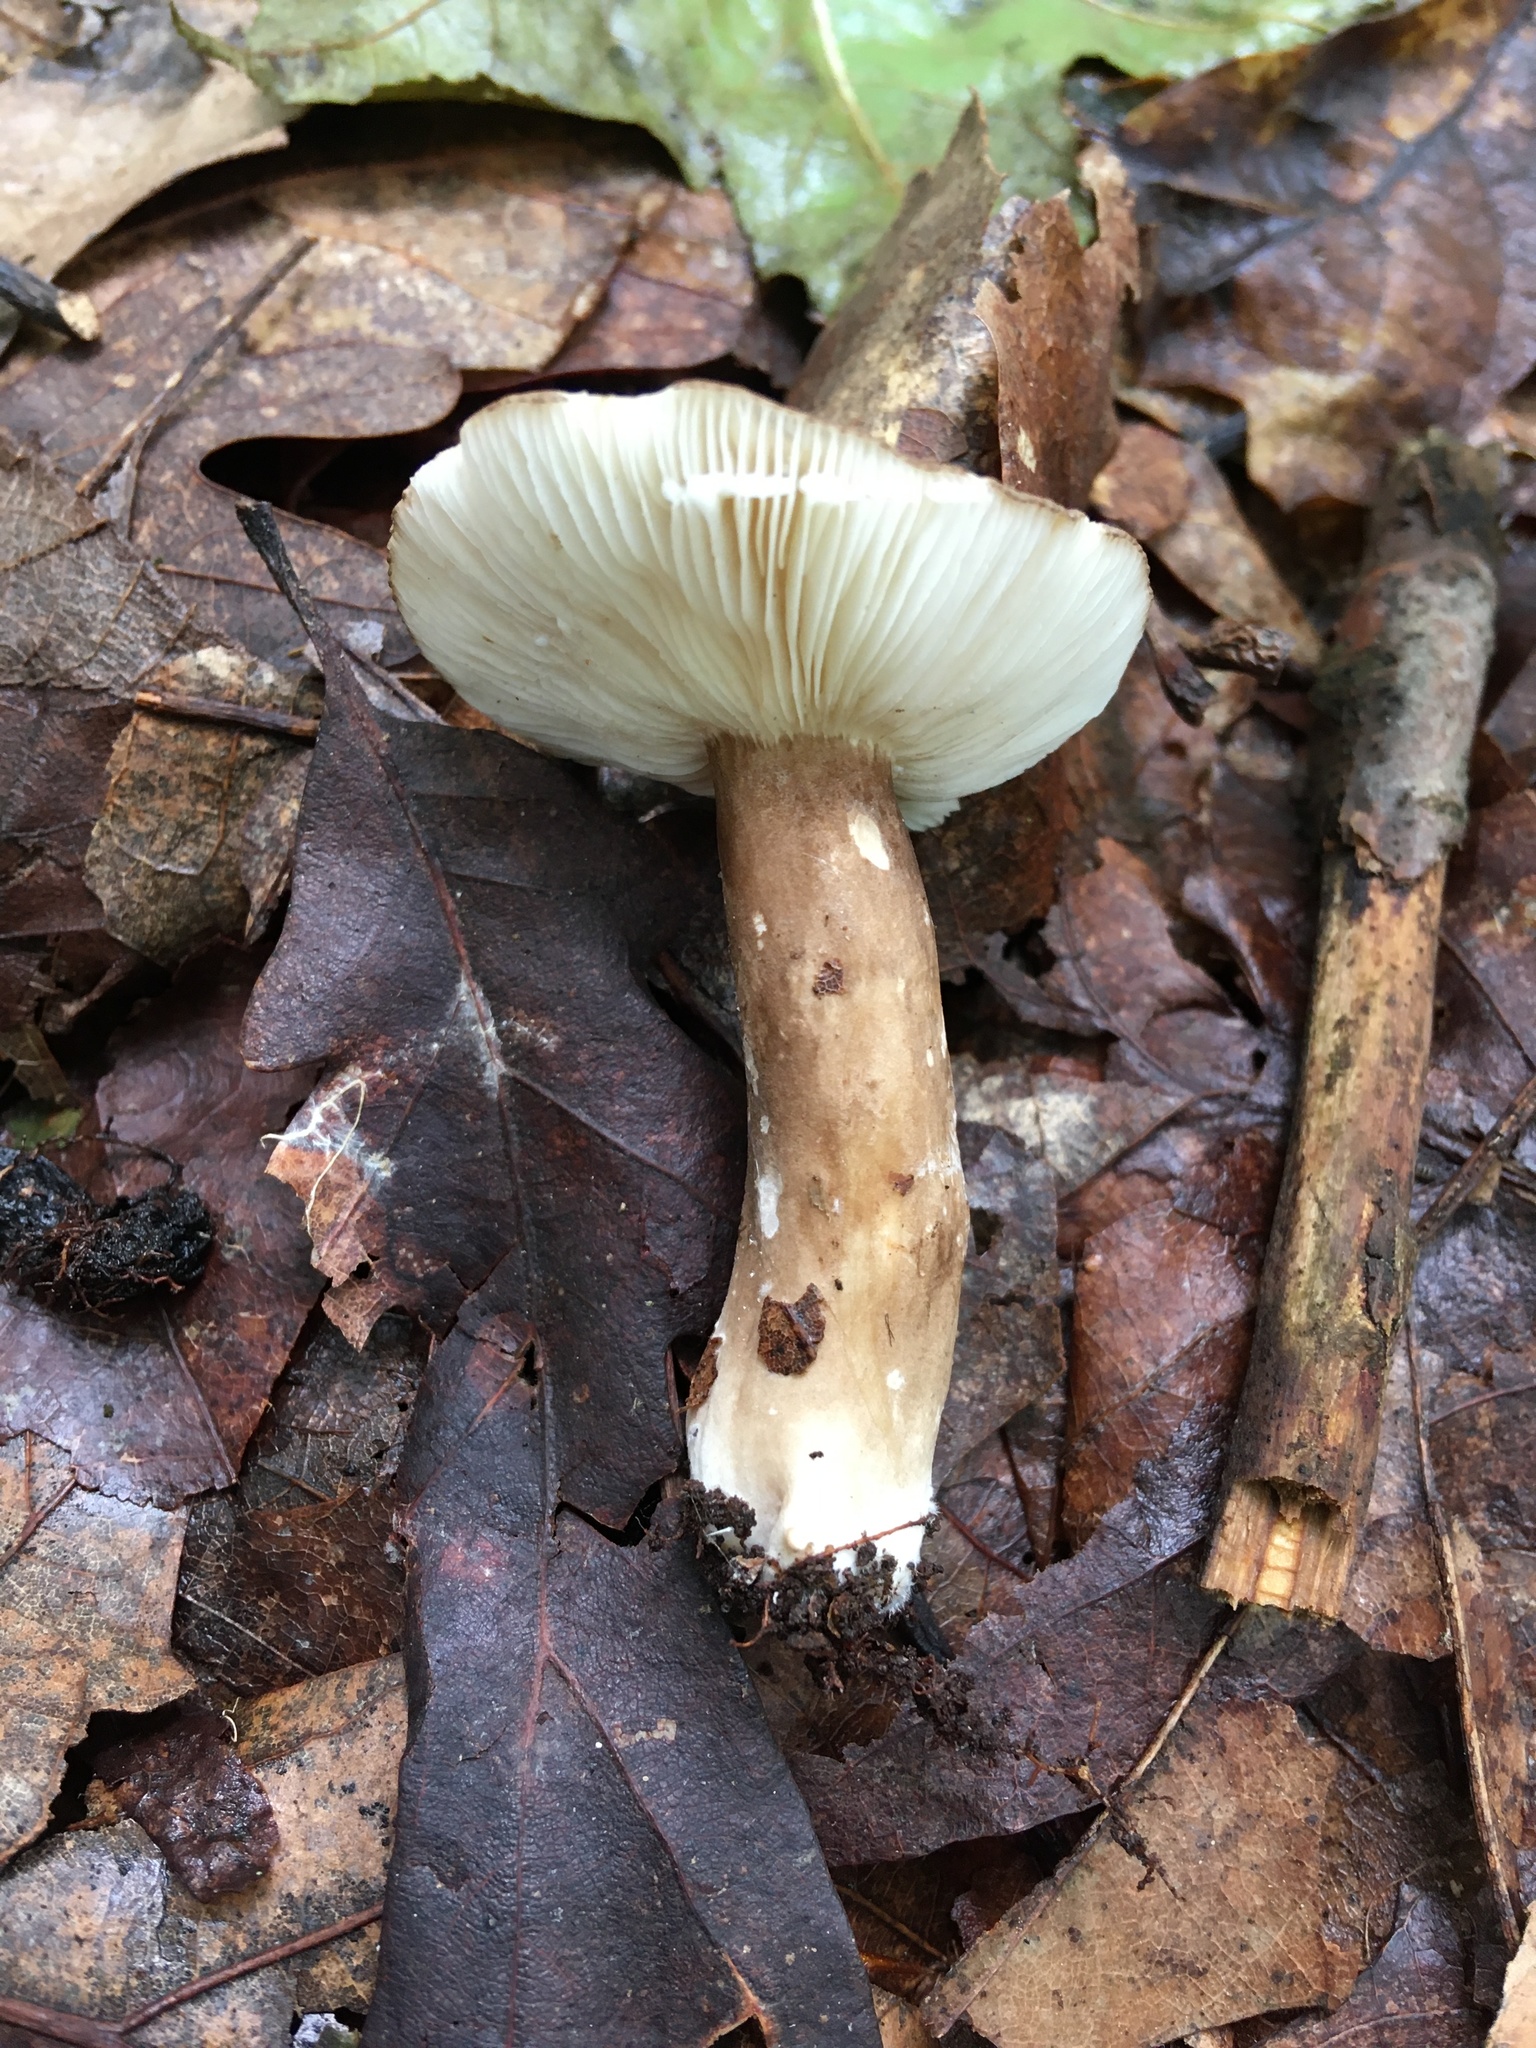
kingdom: Fungi
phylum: Basidiomycota
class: Agaricomycetes
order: Russulales
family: Russulaceae
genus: Lactarius
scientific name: Lactarius fuliginosus
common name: Sooty milkcap
